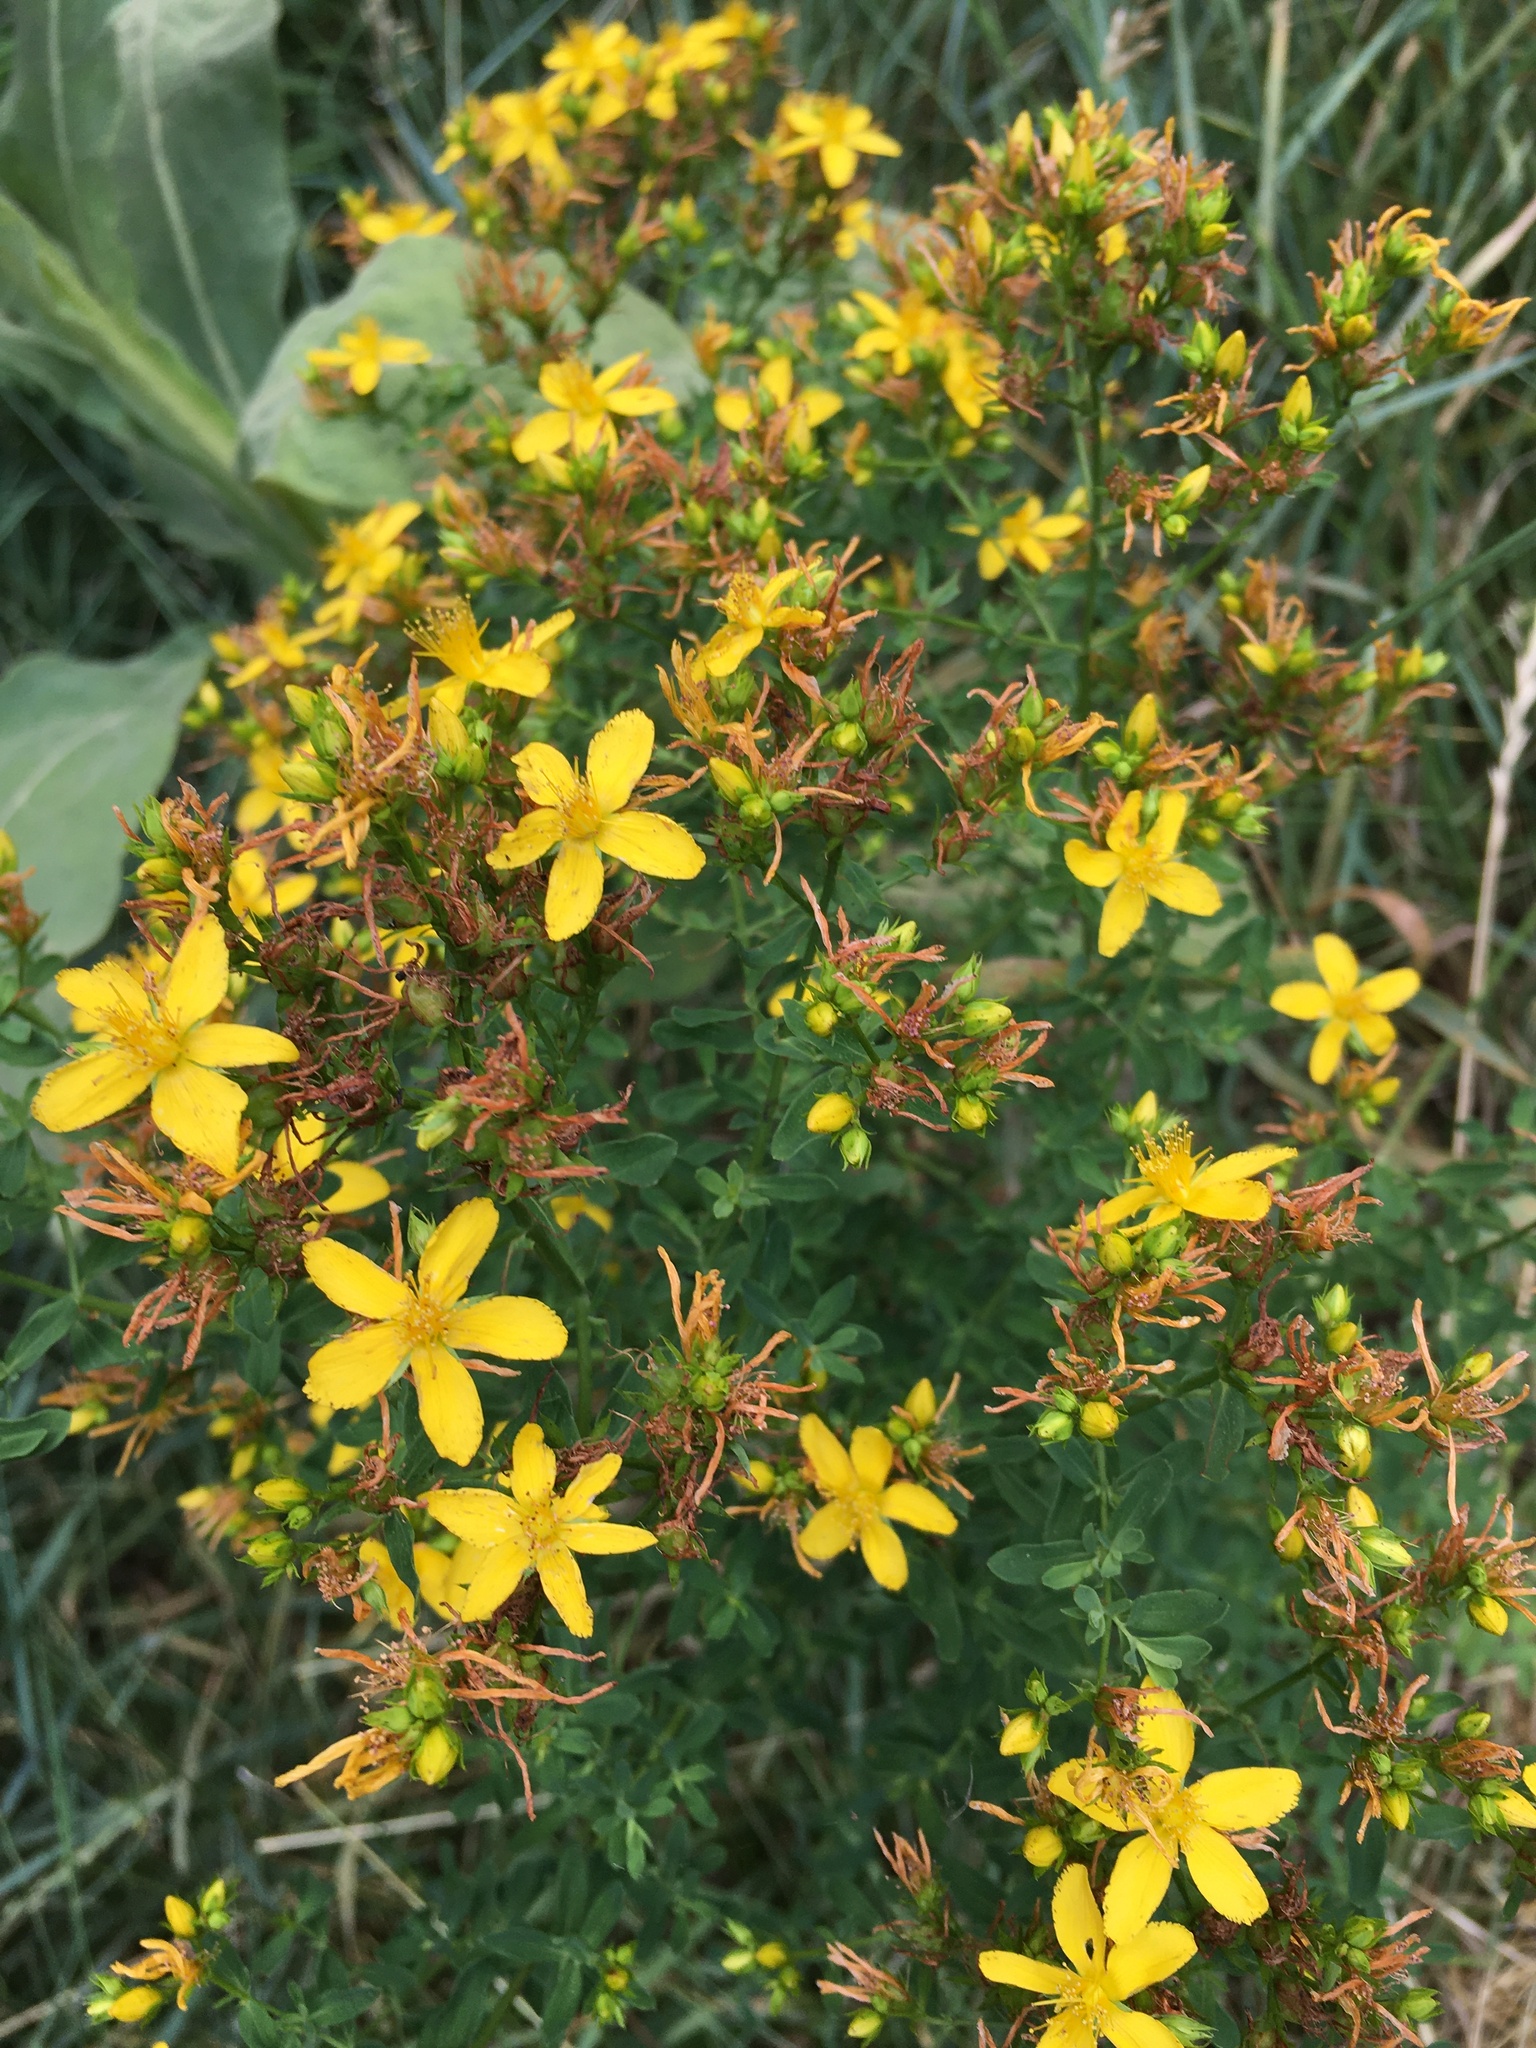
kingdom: Plantae
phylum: Tracheophyta
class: Magnoliopsida
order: Malpighiales
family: Hypericaceae
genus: Hypericum
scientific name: Hypericum perforatum
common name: Common st. johnswort
